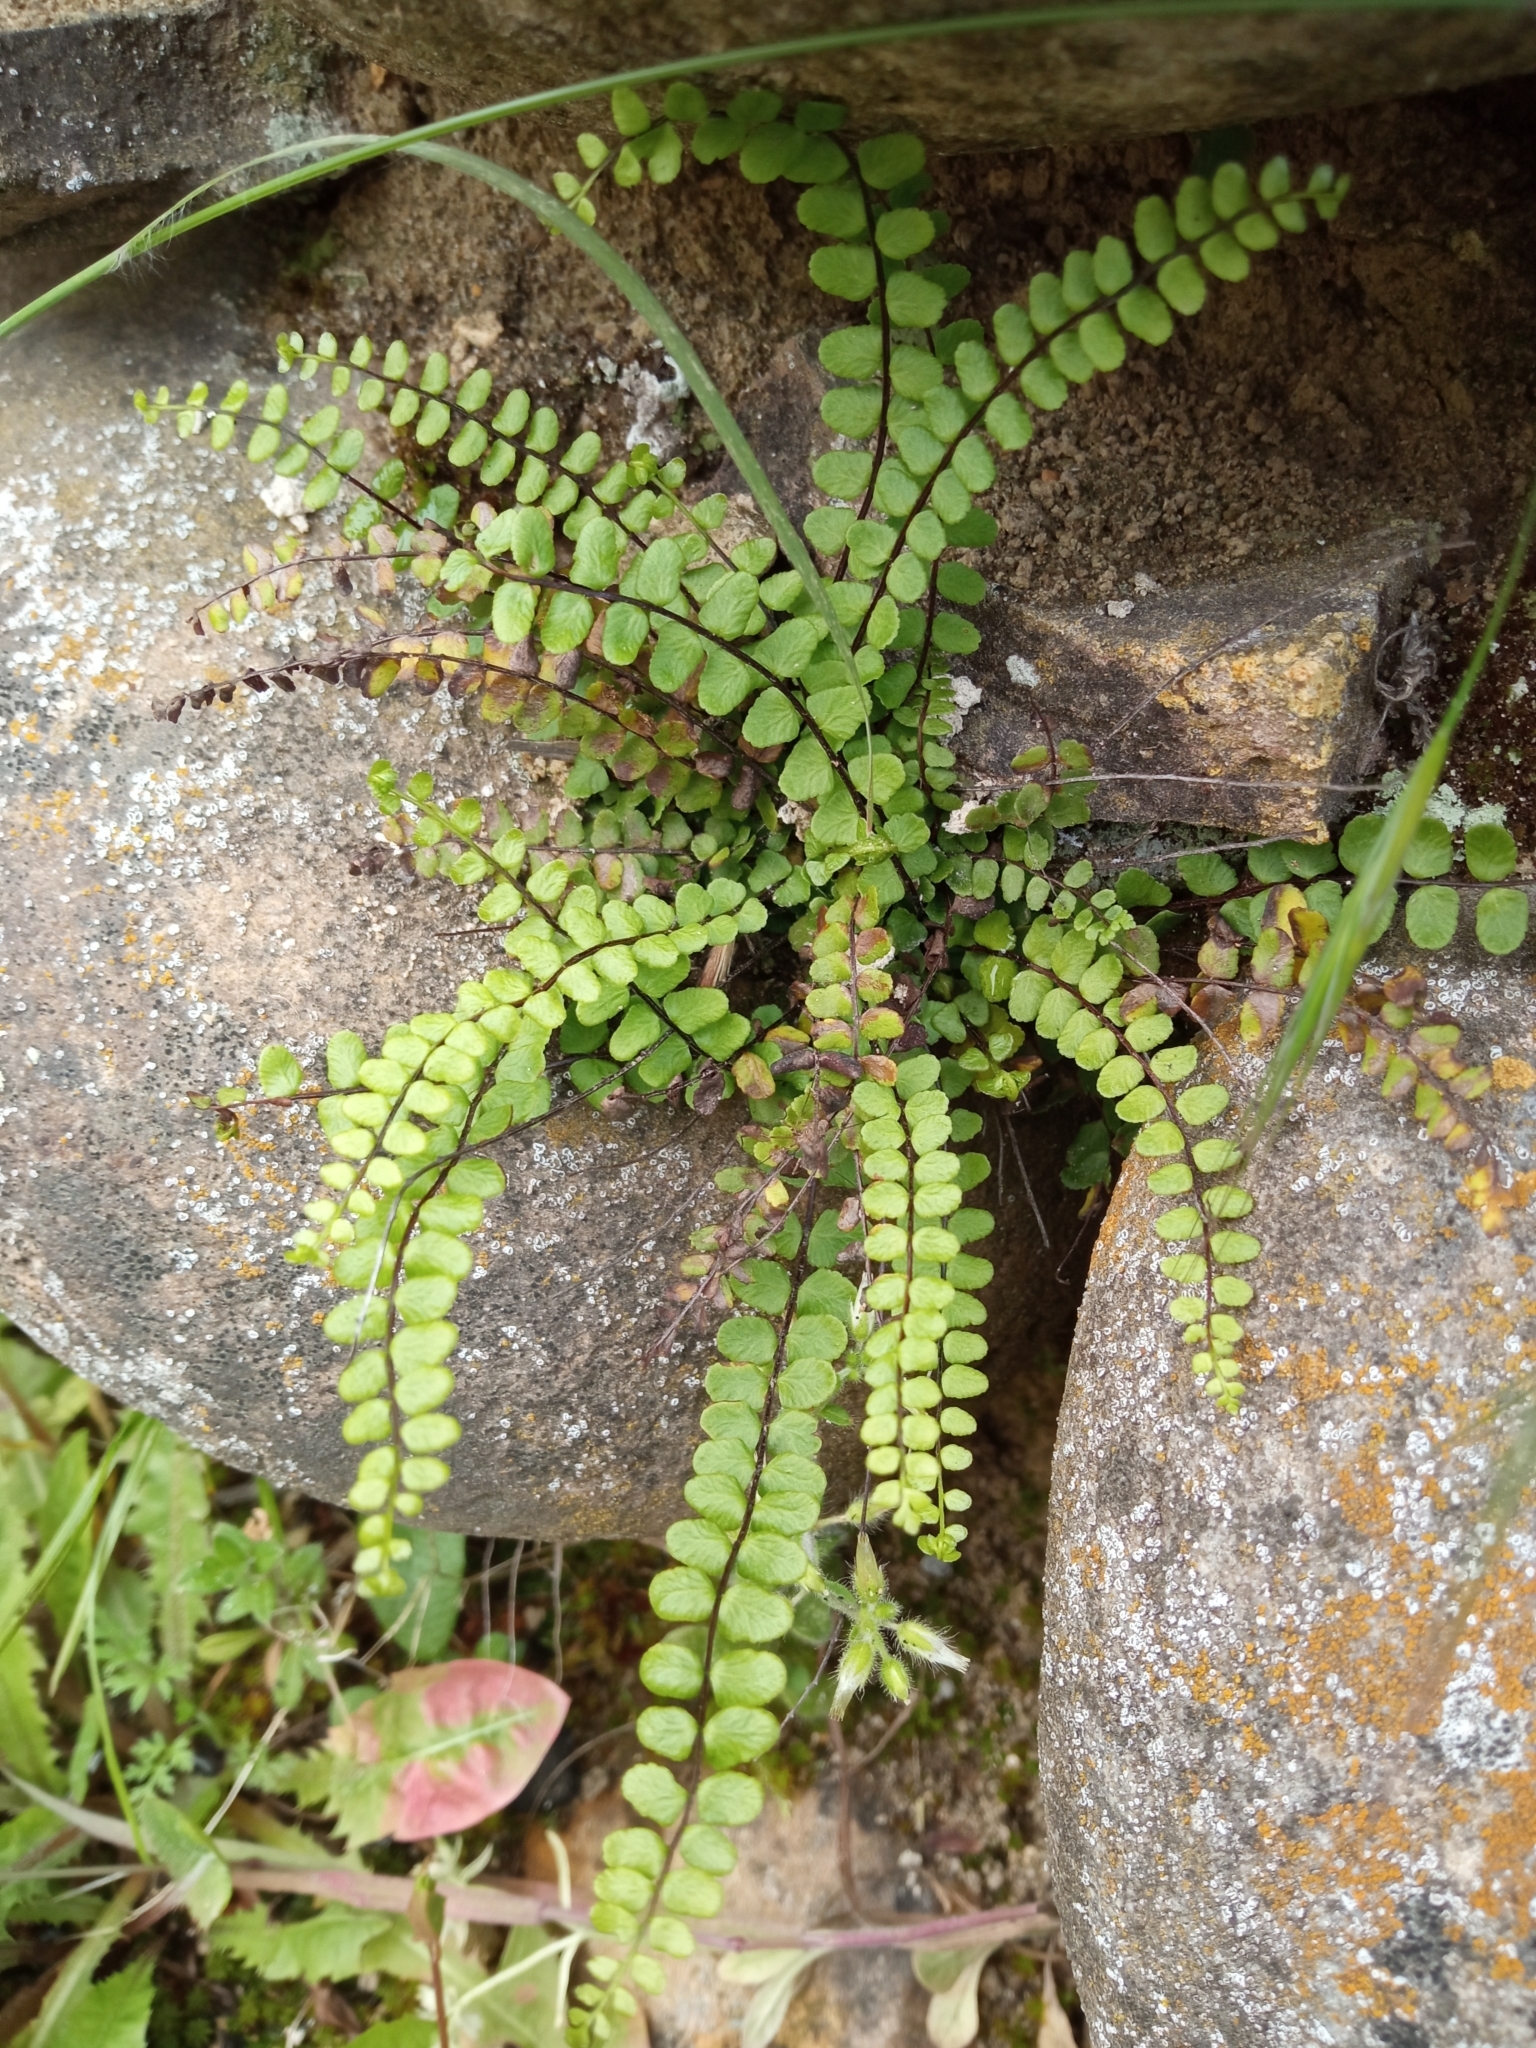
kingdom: Plantae
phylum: Tracheophyta
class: Polypodiopsida
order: Polypodiales
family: Aspleniaceae
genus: Asplenium
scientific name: Asplenium trichomanes
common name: Maidenhair spleenwort
